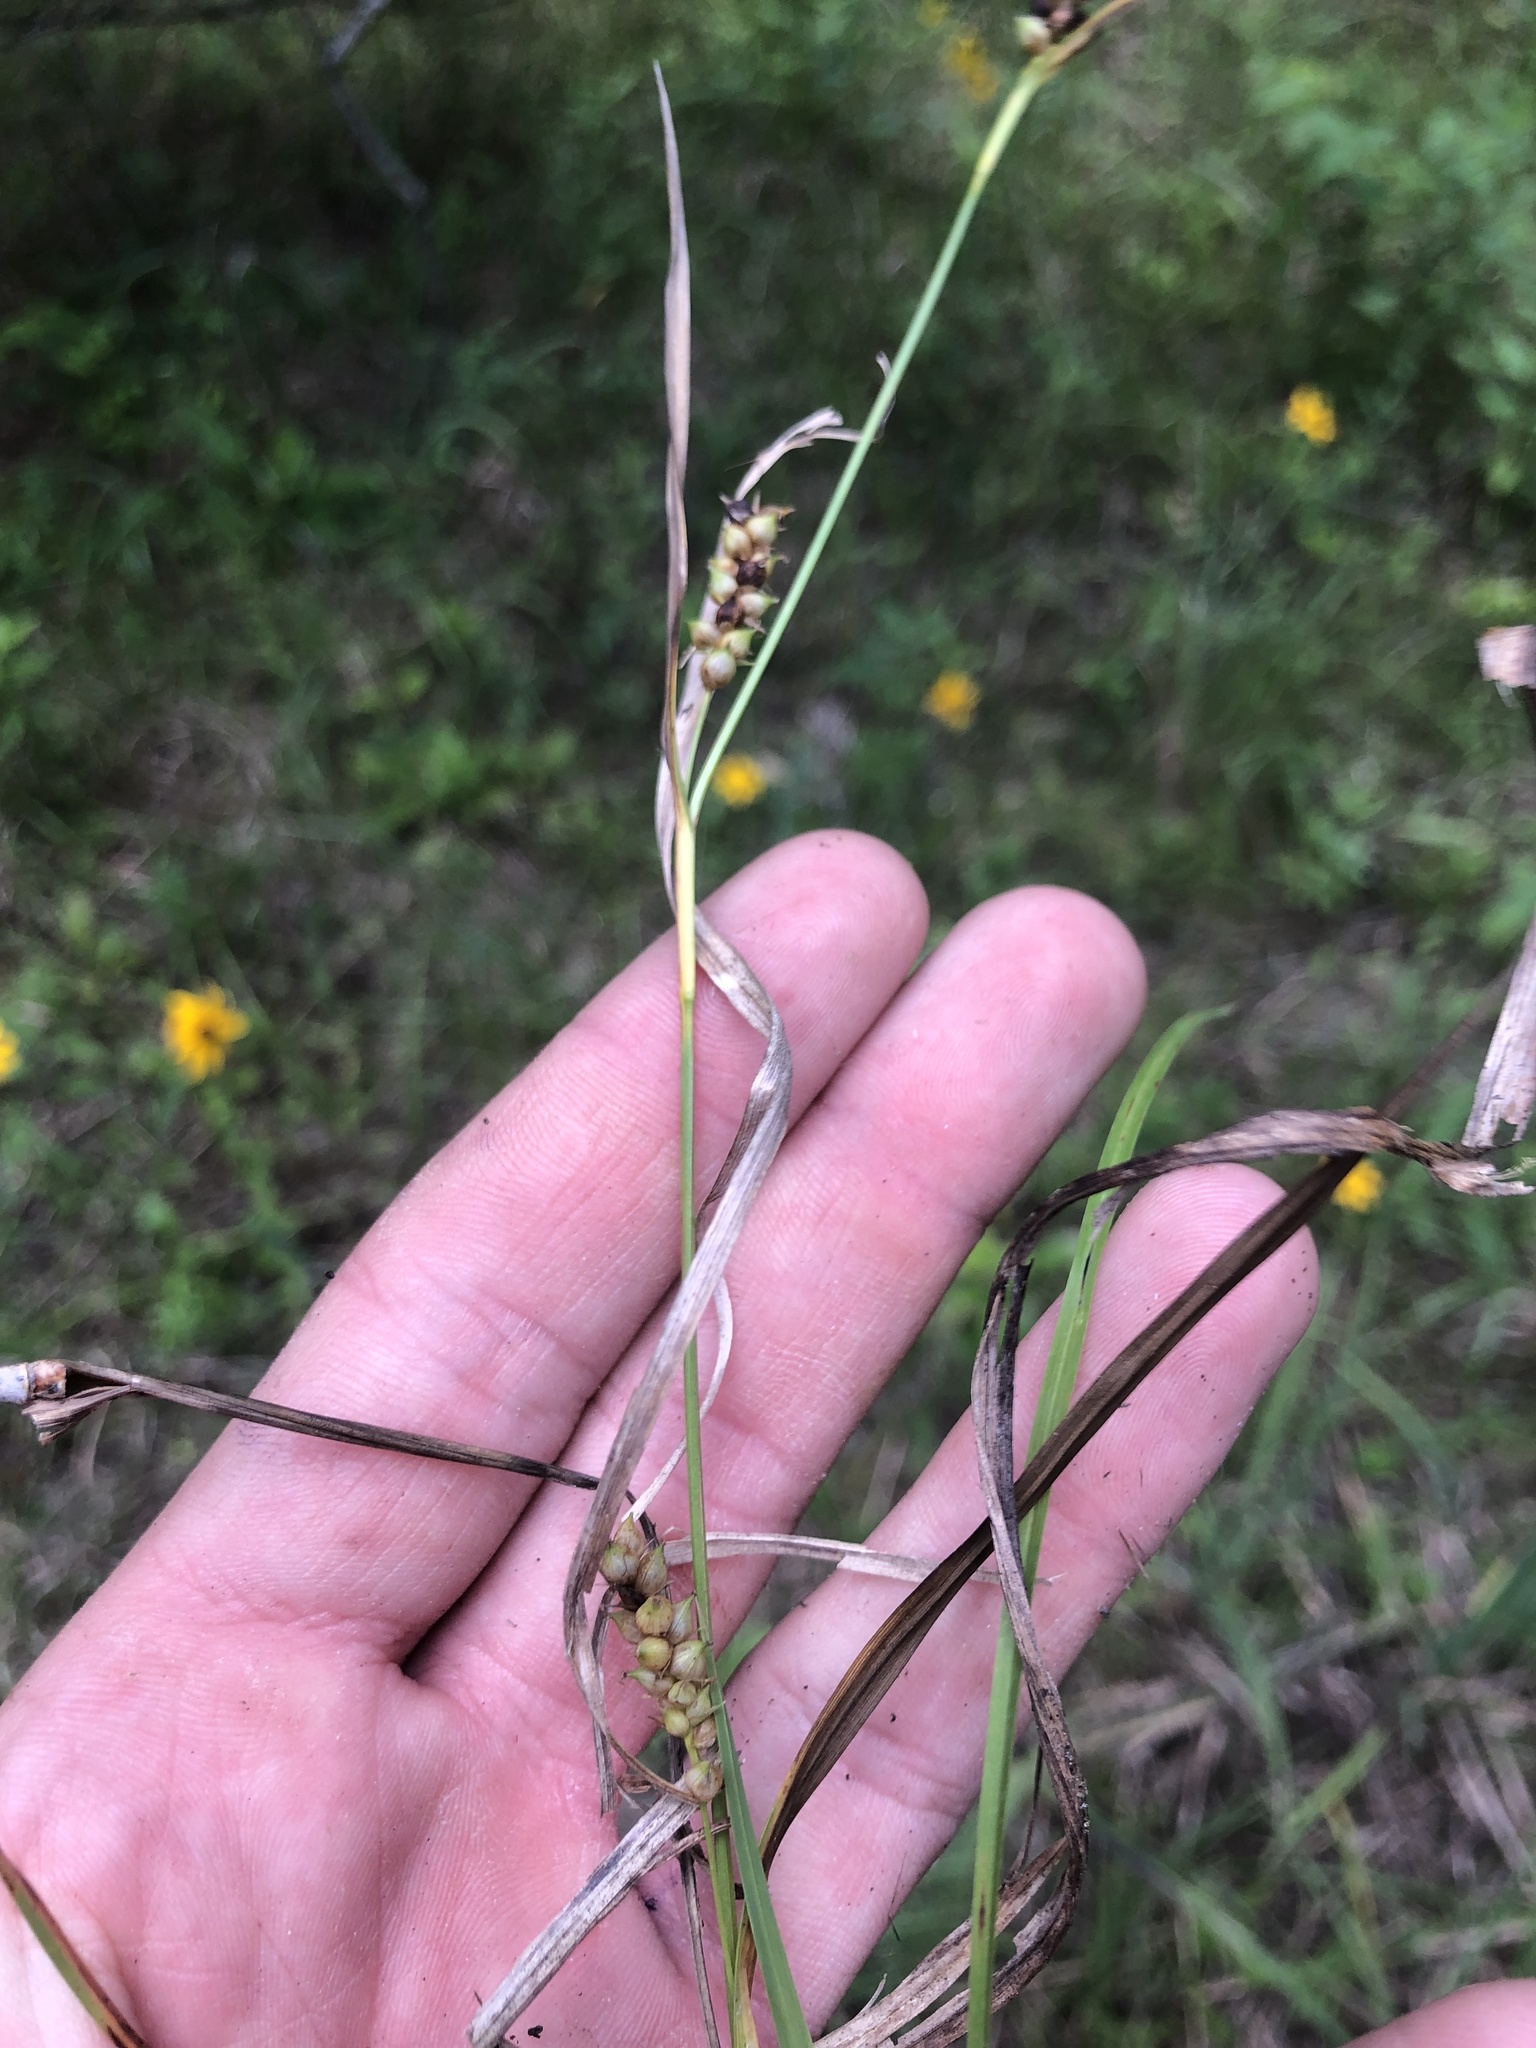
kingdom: Plantae
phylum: Tracheophyta
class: Liliopsida
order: Poales
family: Cyperaceae
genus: Carex
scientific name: Carex microdonta
